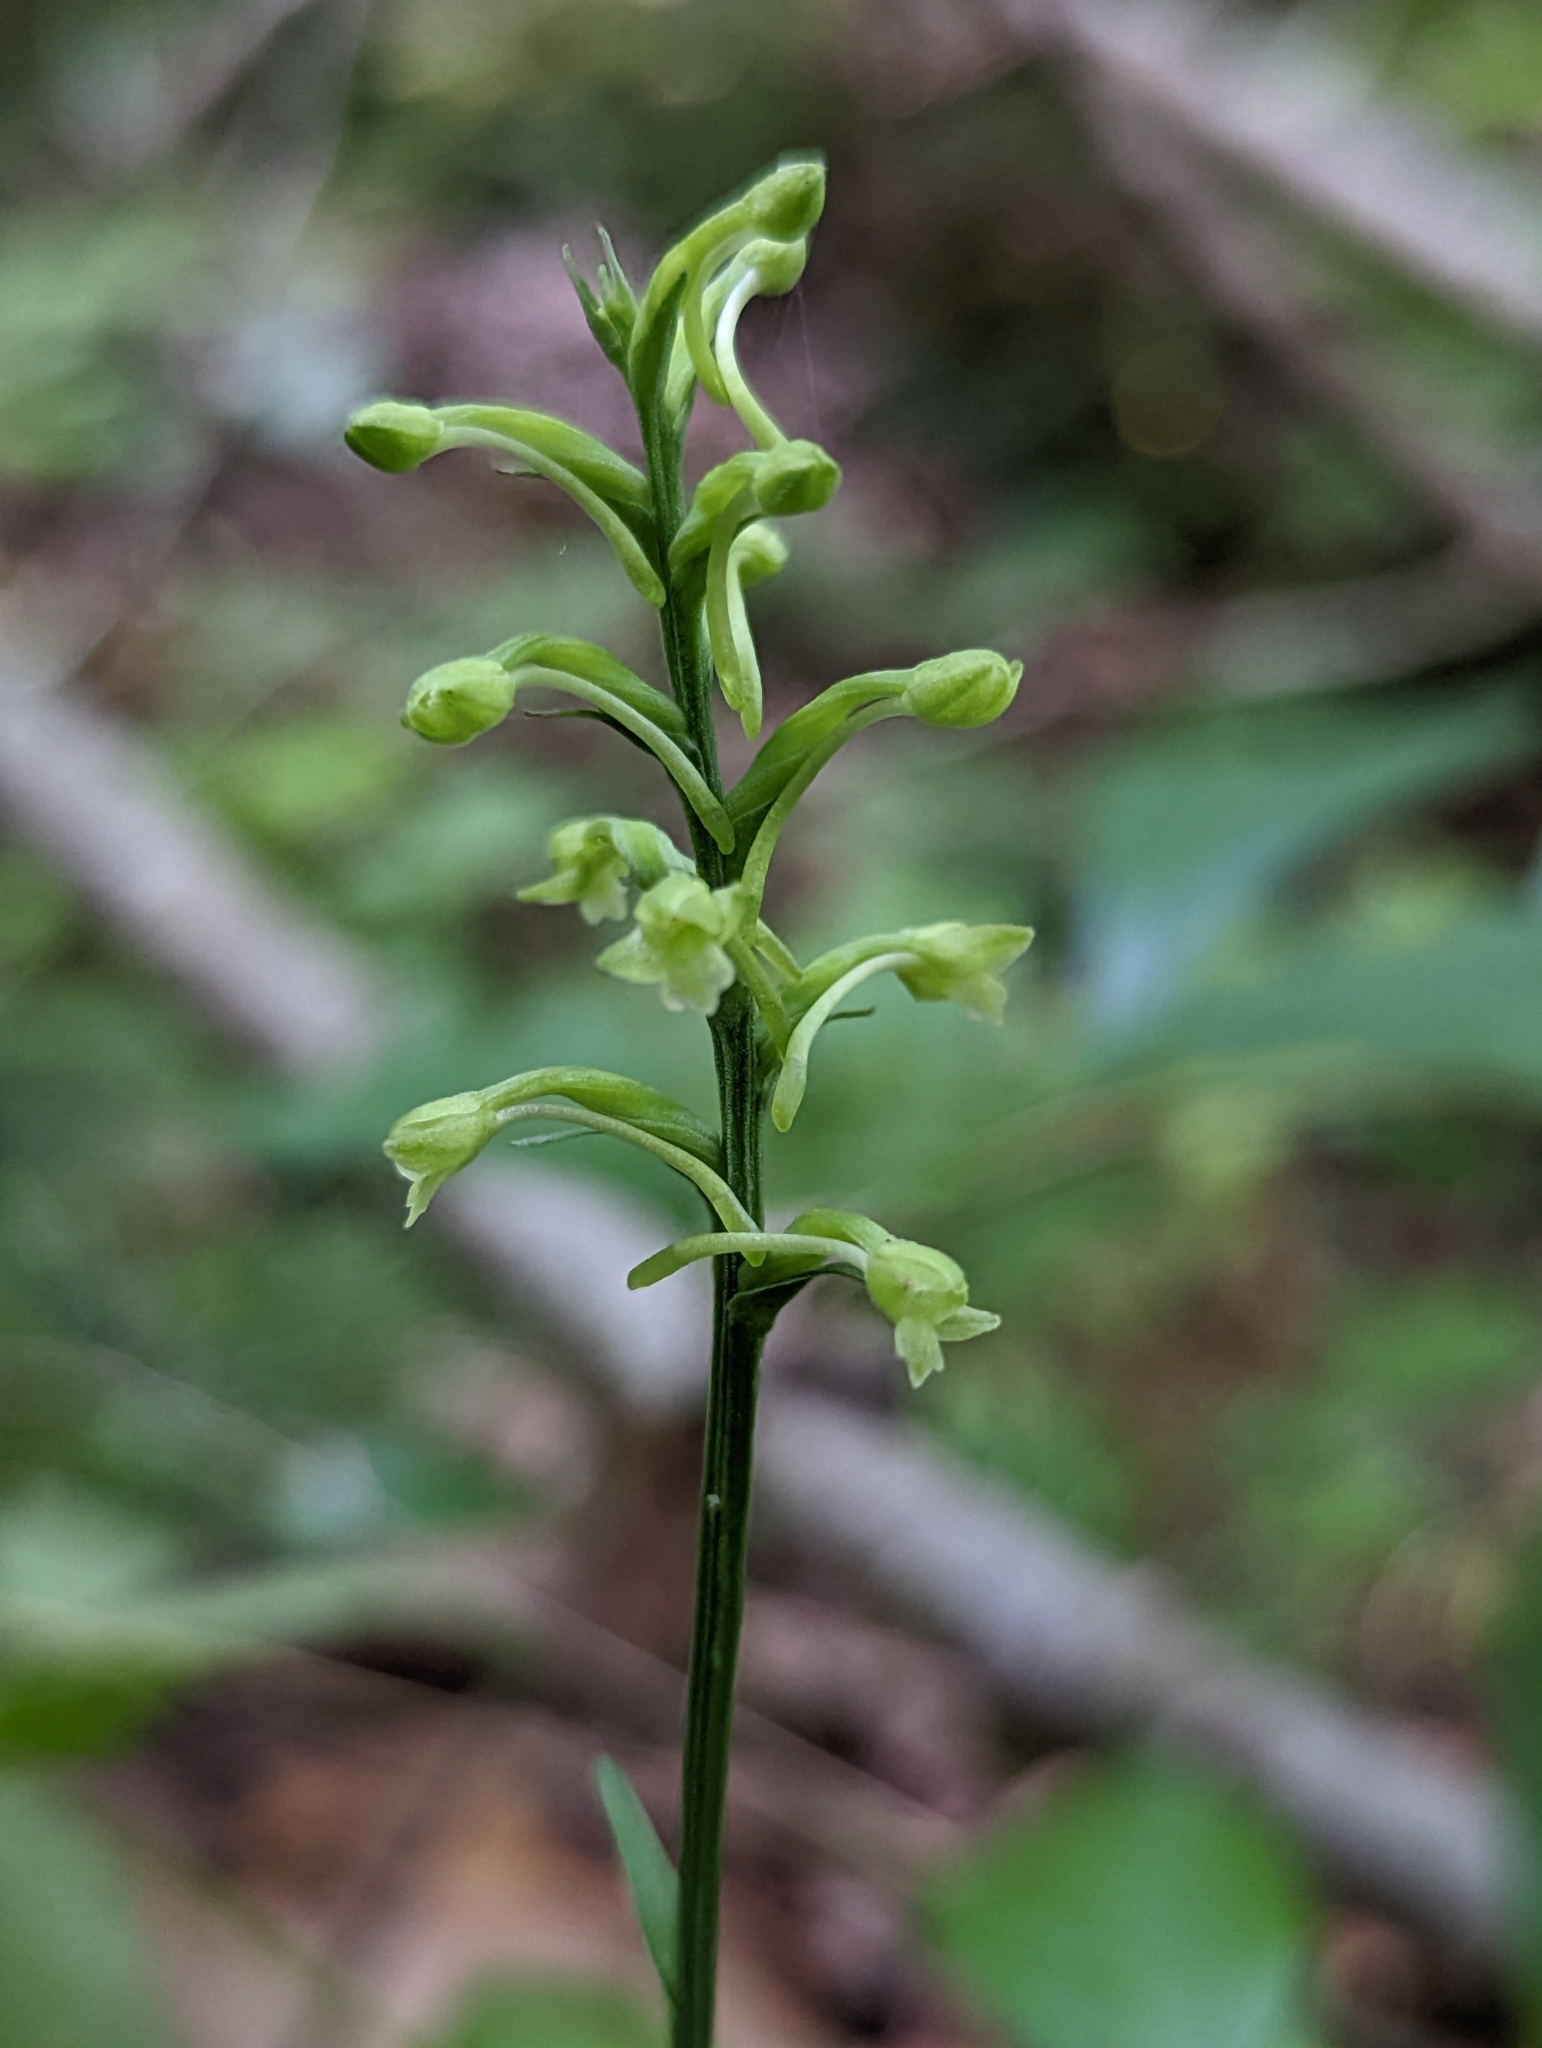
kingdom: Plantae
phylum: Tracheophyta
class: Liliopsida
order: Asparagales
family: Orchidaceae
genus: Platanthera
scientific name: Platanthera clavellata
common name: Club-spur orchid
